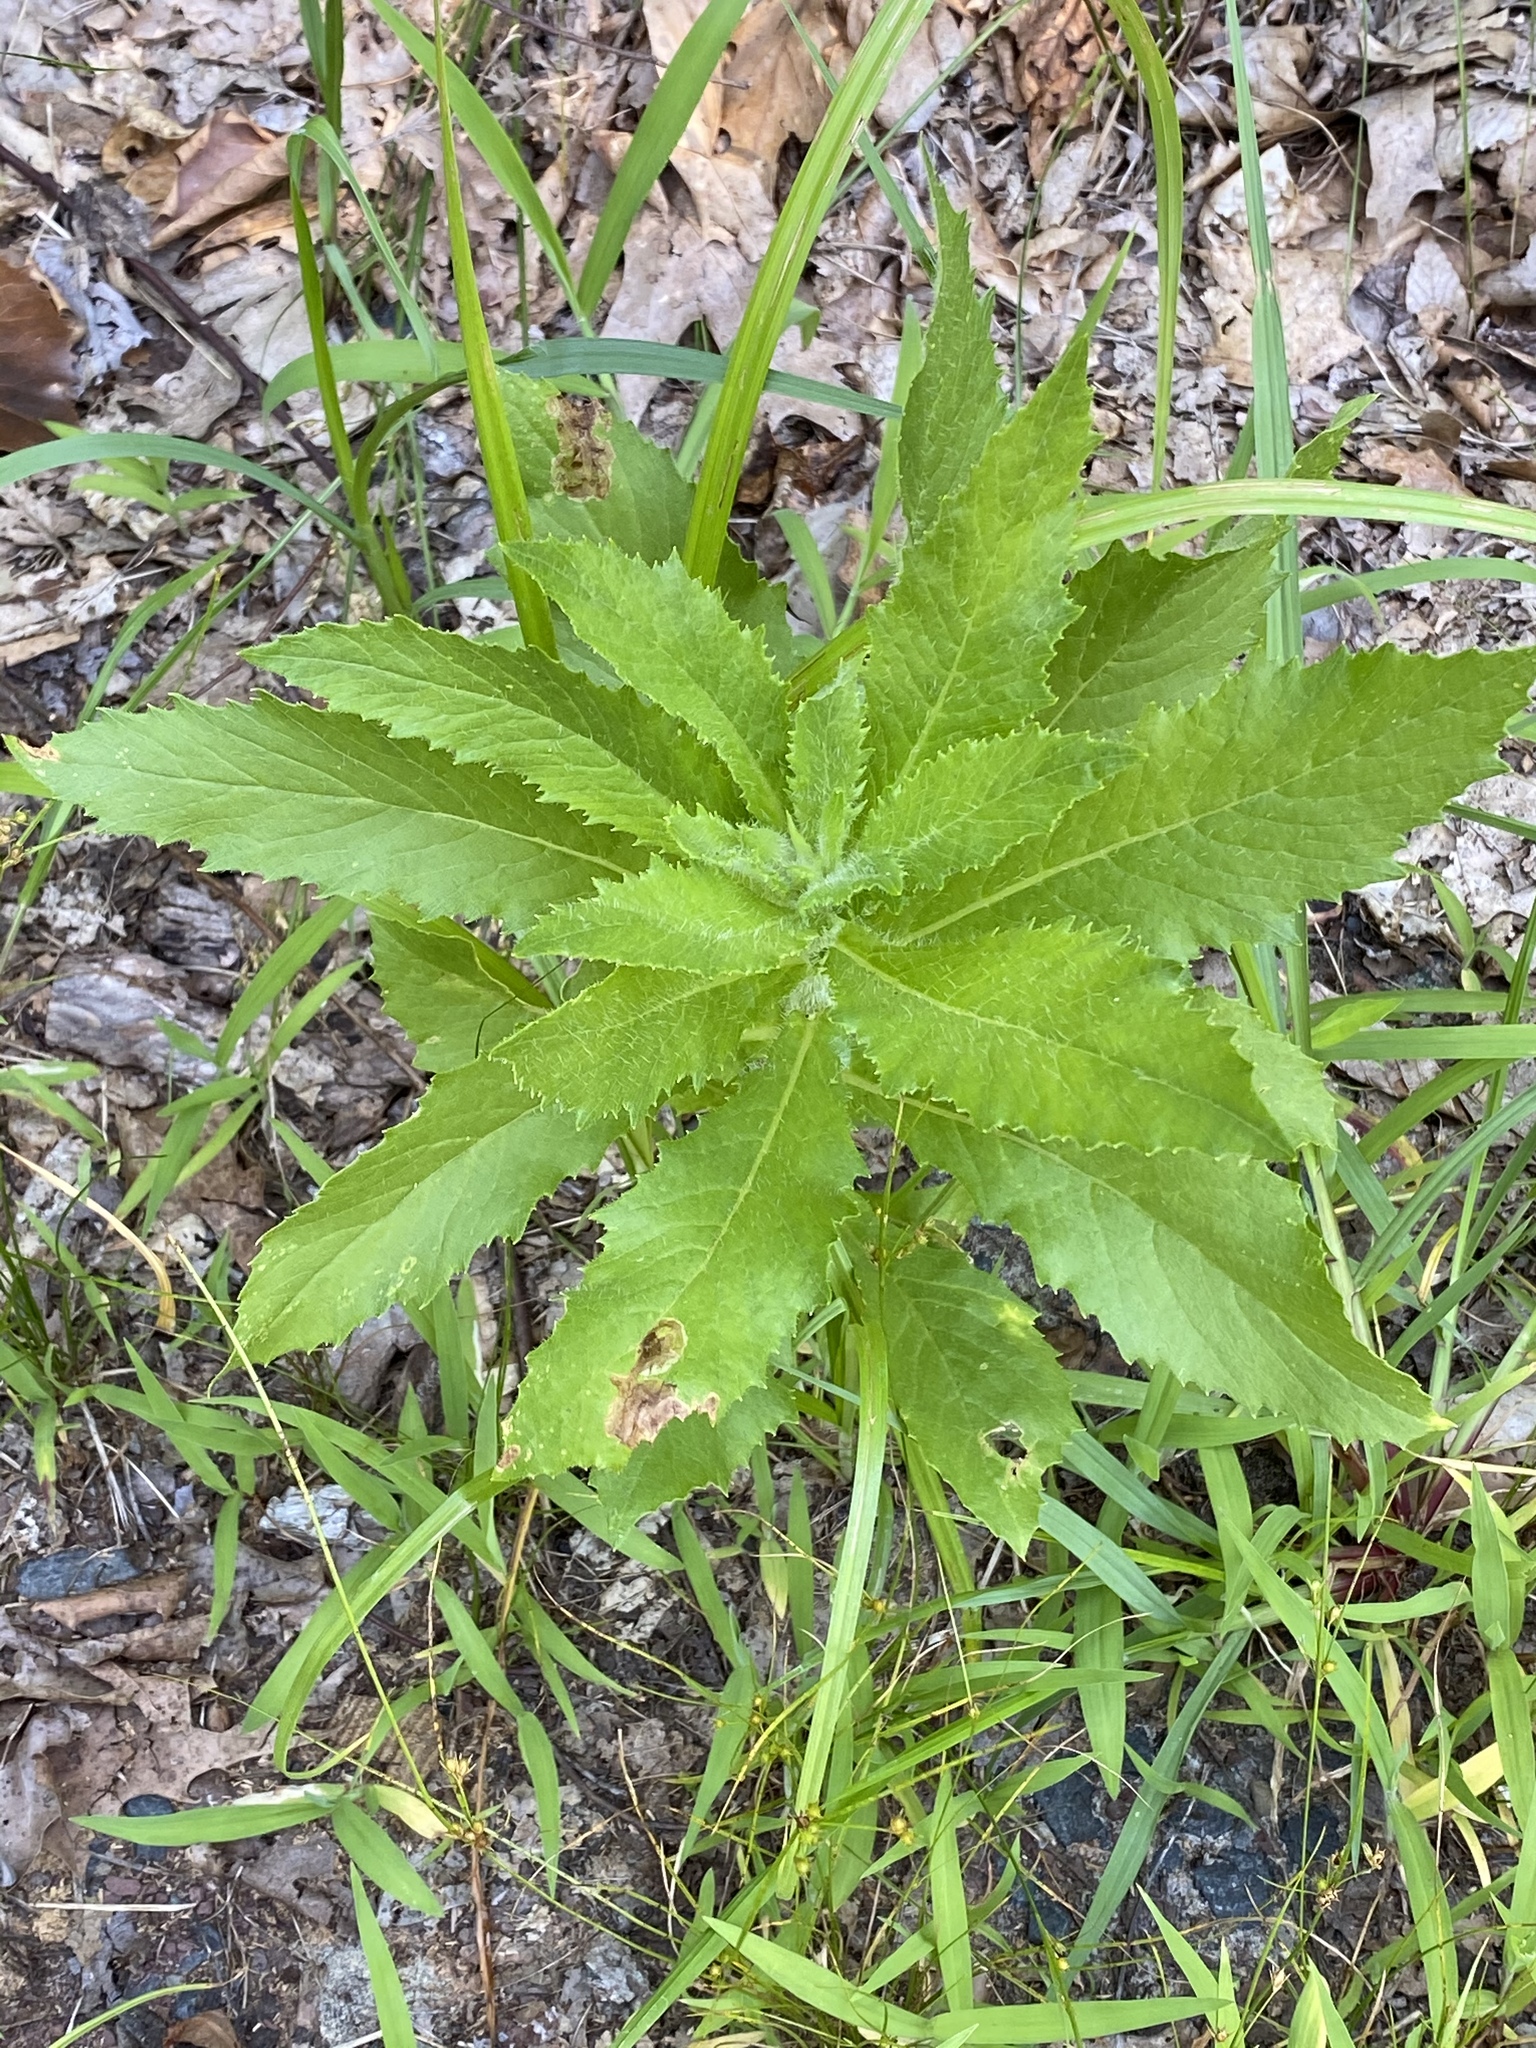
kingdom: Plantae
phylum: Tracheophyta
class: Magnoliopsida
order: Asterales
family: Asteraceae
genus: Erechtites
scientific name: Erechtites hieraciifolius
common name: American burnweed
